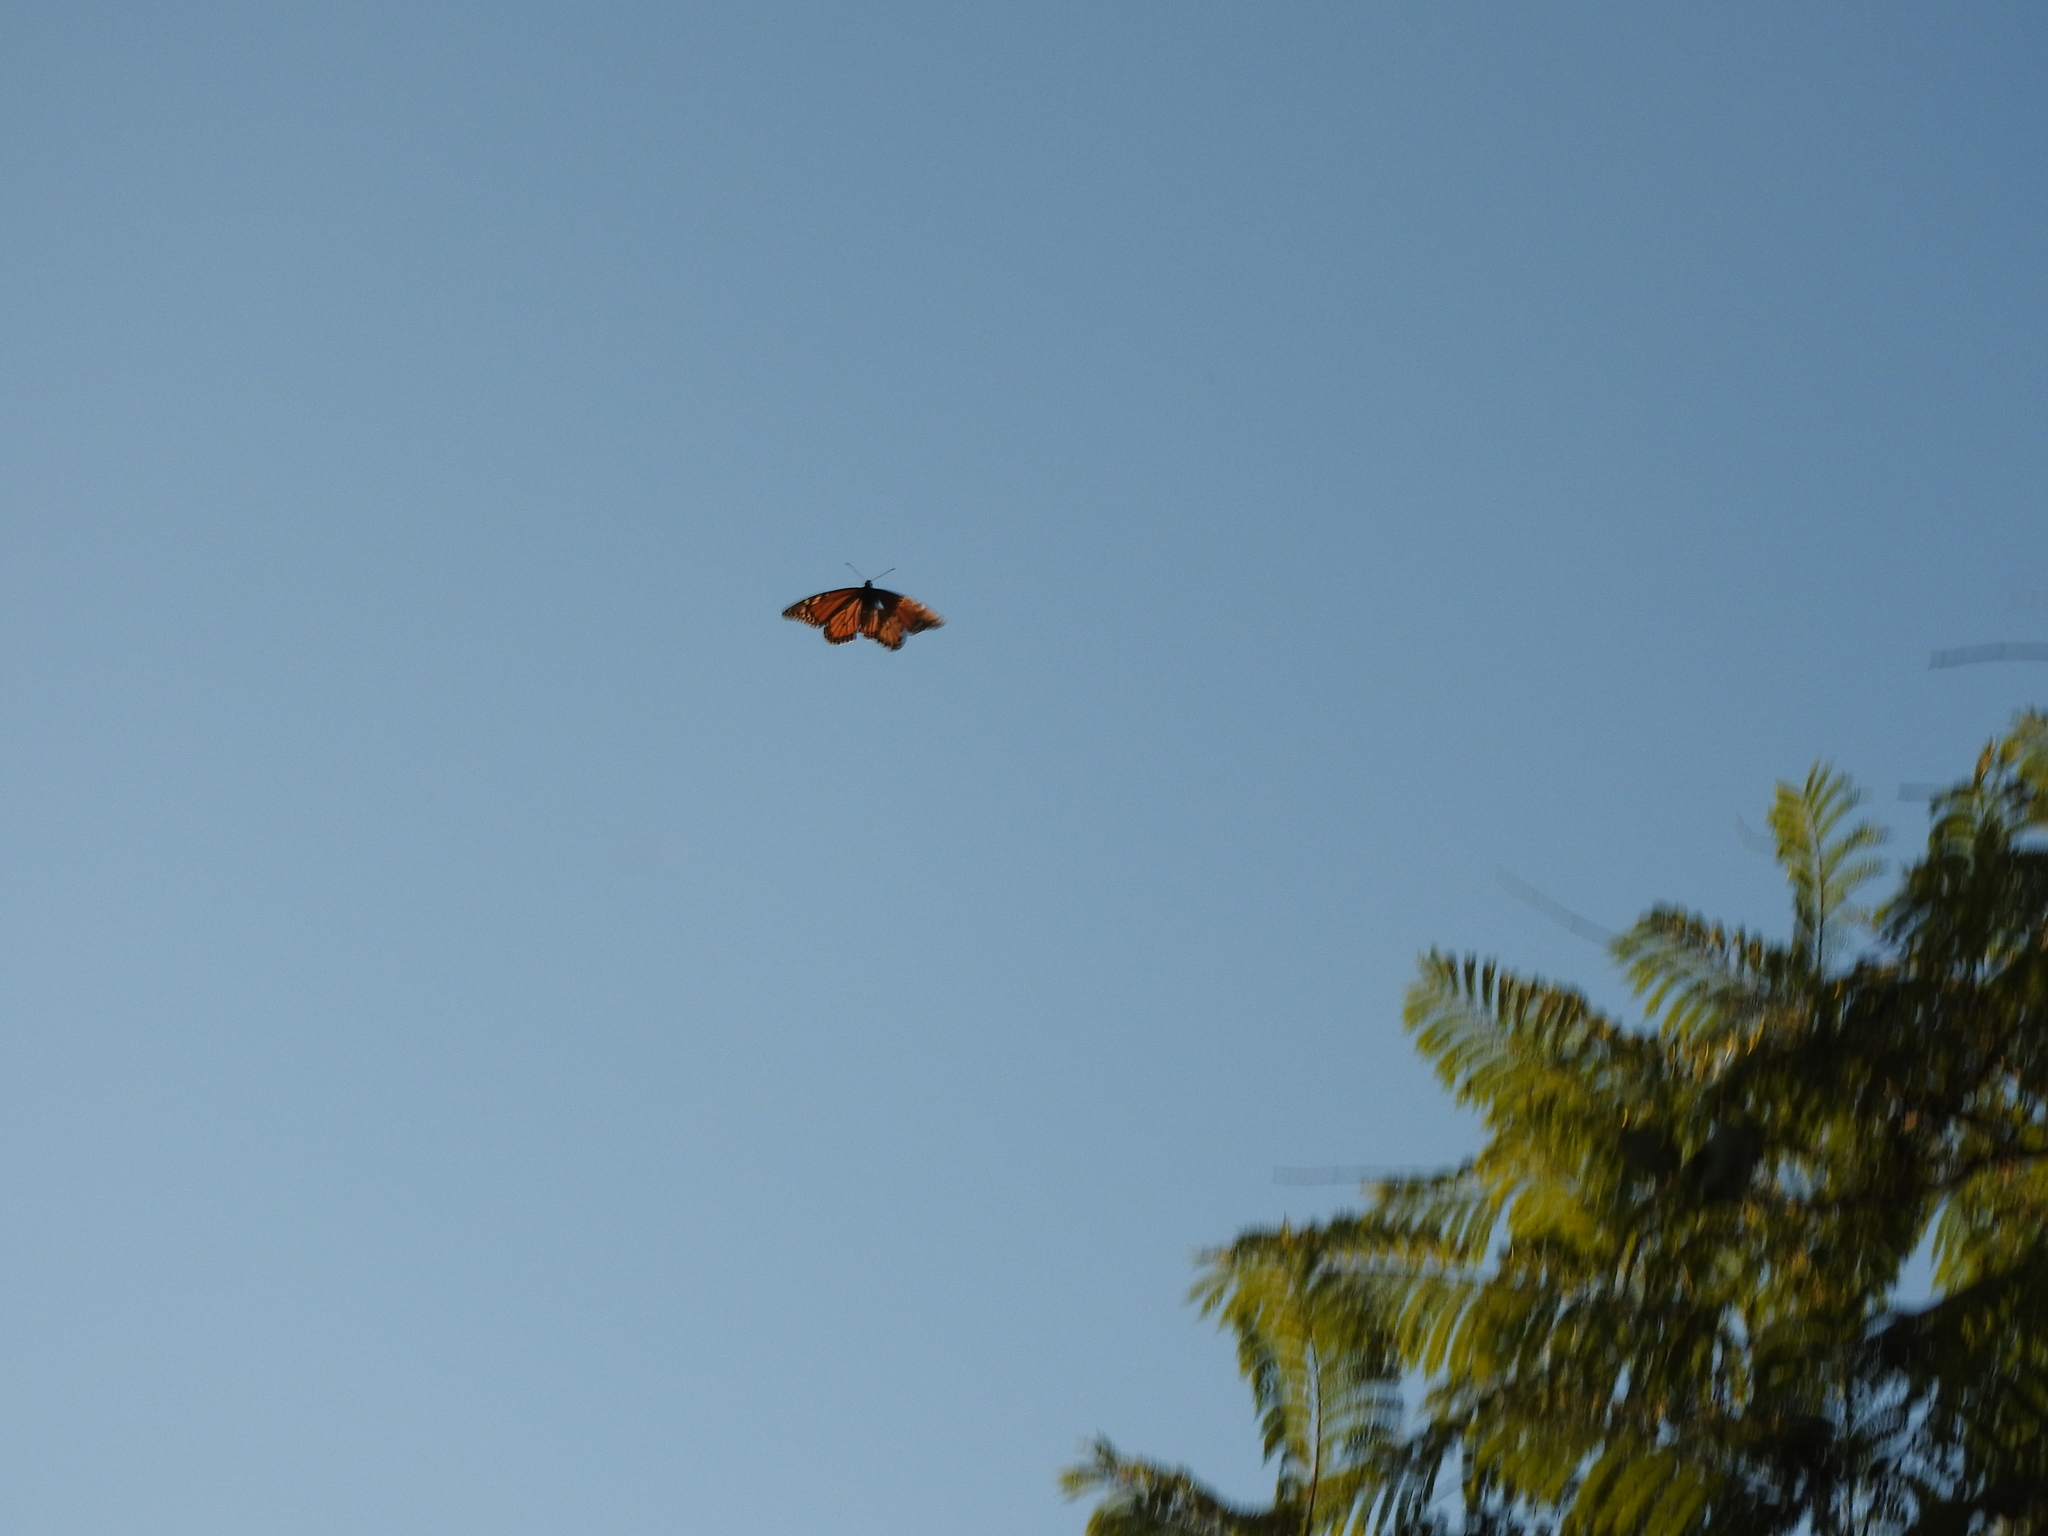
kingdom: Animalia
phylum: Arthropoda
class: Insecta
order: Lepidoptera
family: Nymphalidae
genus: Danaus
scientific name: Danaus plexippus
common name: Monarch
